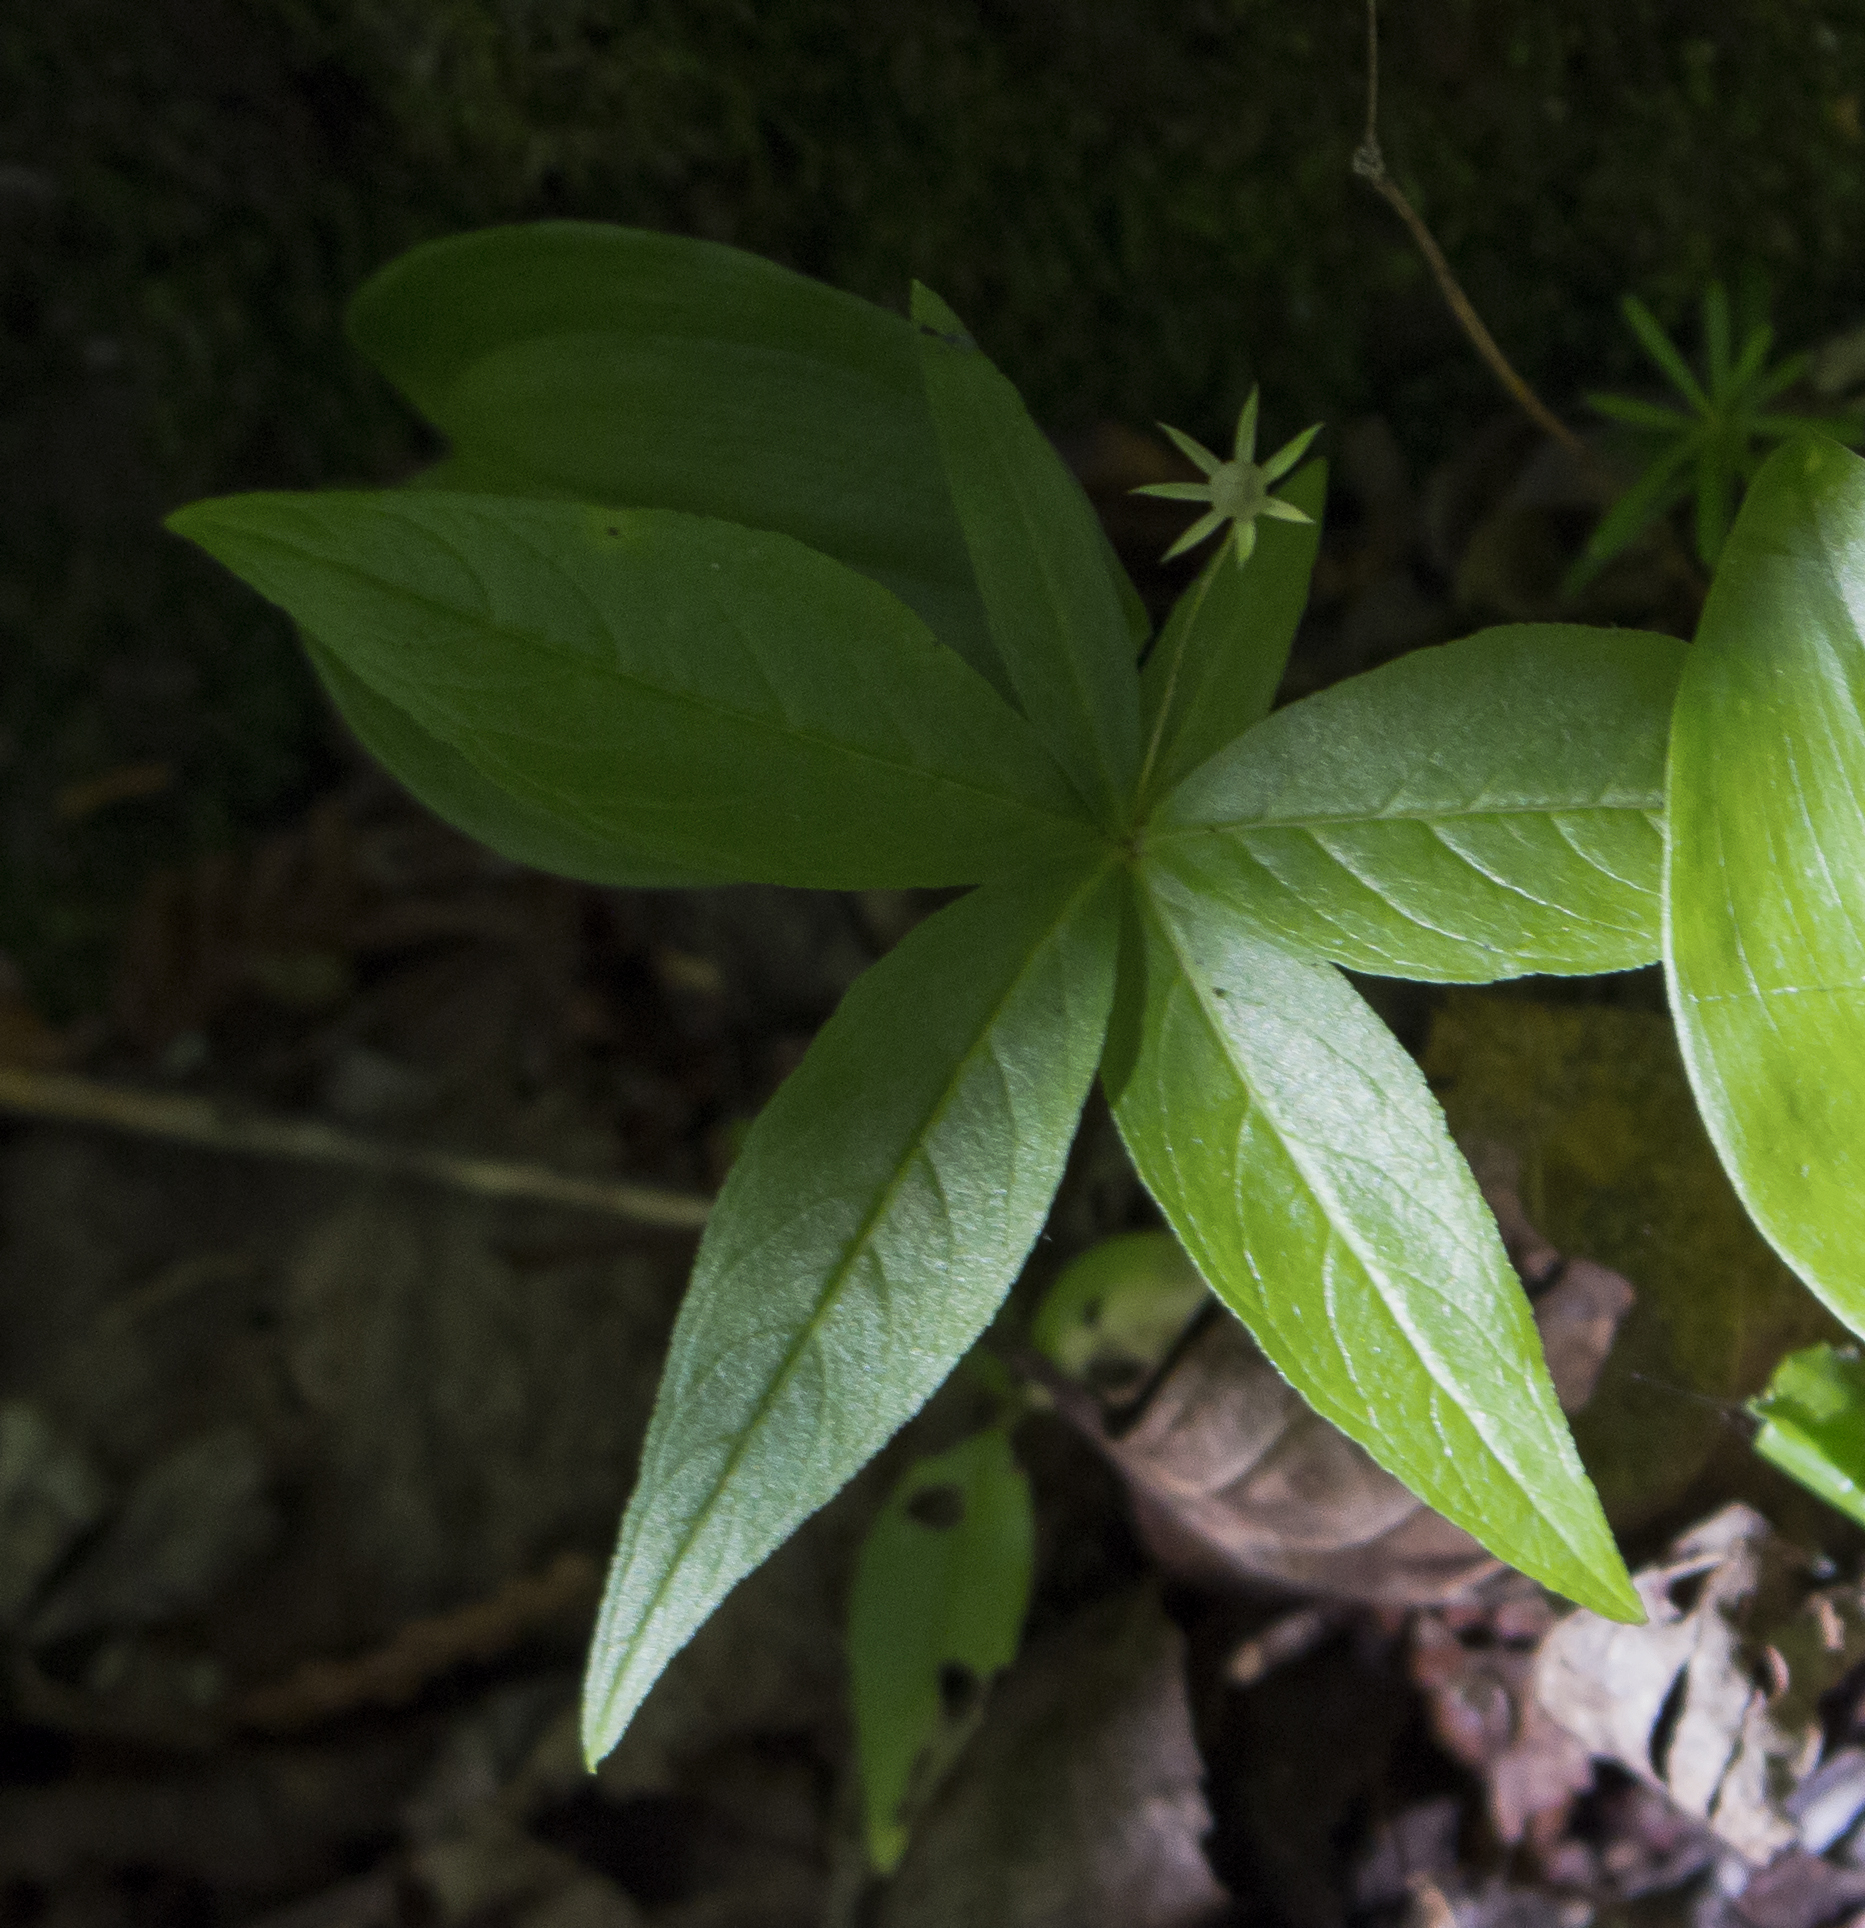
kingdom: Plantae
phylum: Tracheophyta
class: Magnoliopsida
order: Ericales
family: Primulaceae
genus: Lysimachia
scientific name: Lysimachia borealis
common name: American starflower
